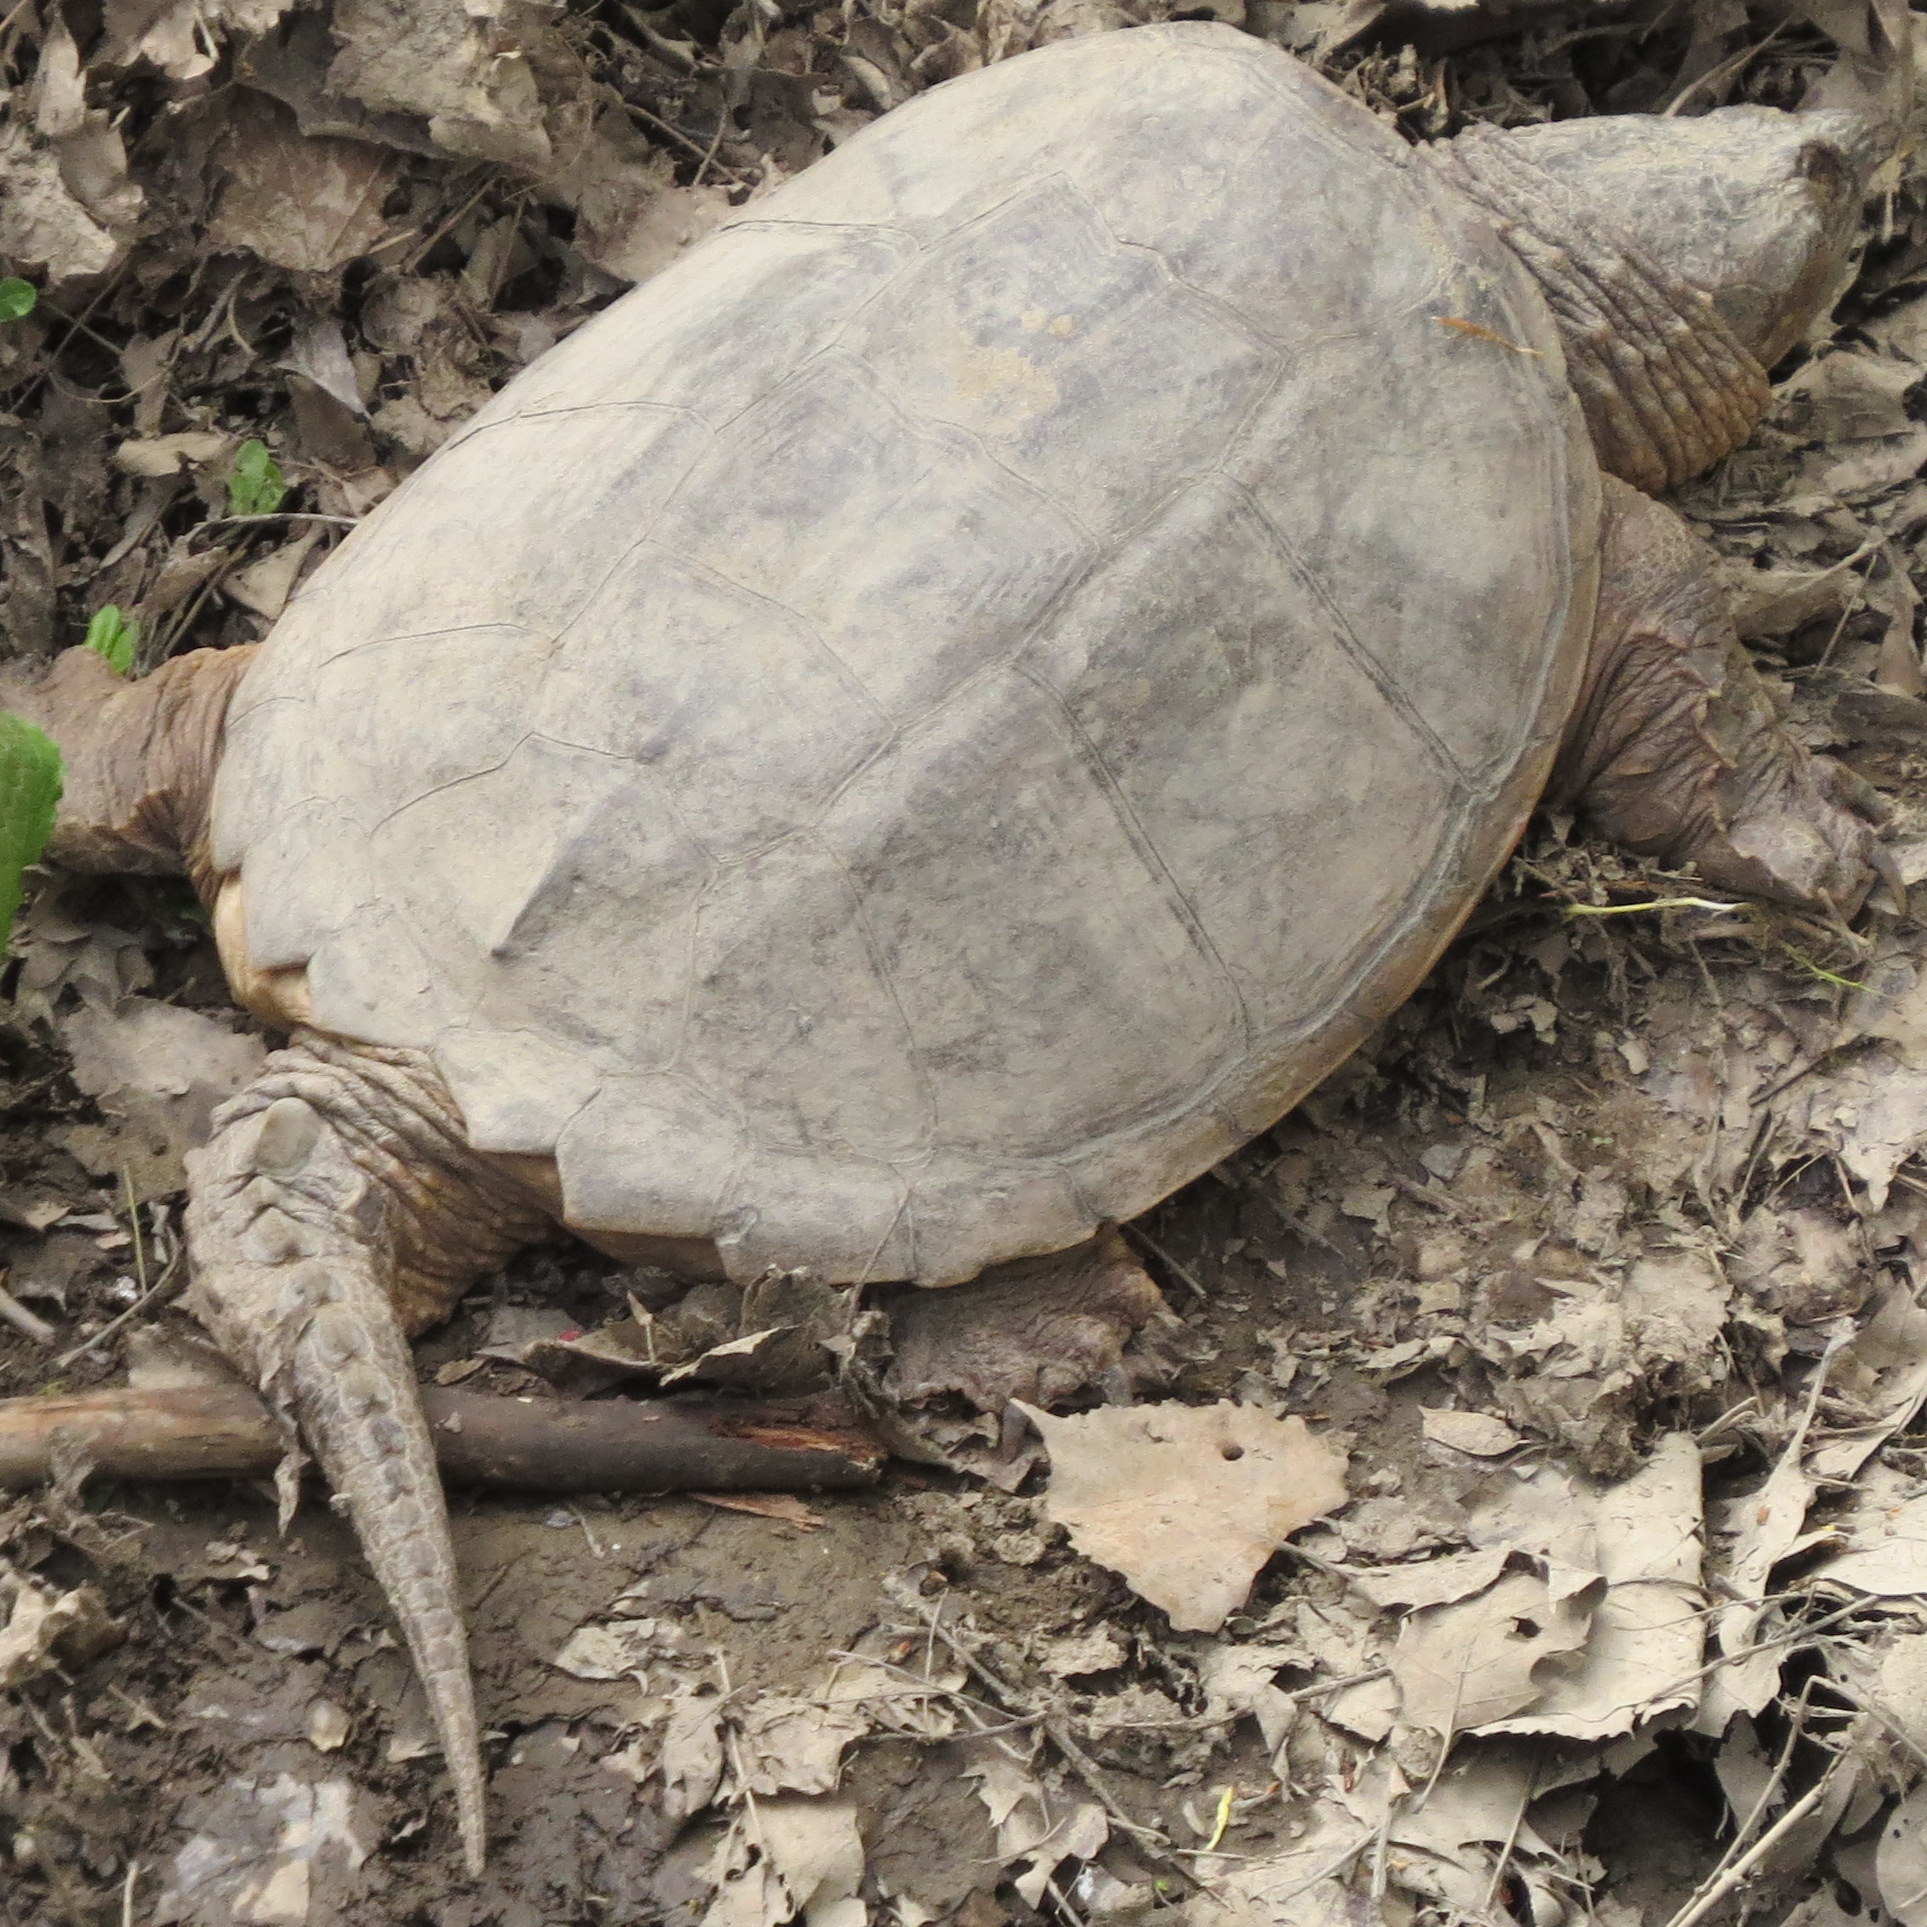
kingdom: Animalia
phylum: Chordata
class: Testudines
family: Chelydridae
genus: Chelydra
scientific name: Chelydra serpentina
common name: Common snapping turtle
